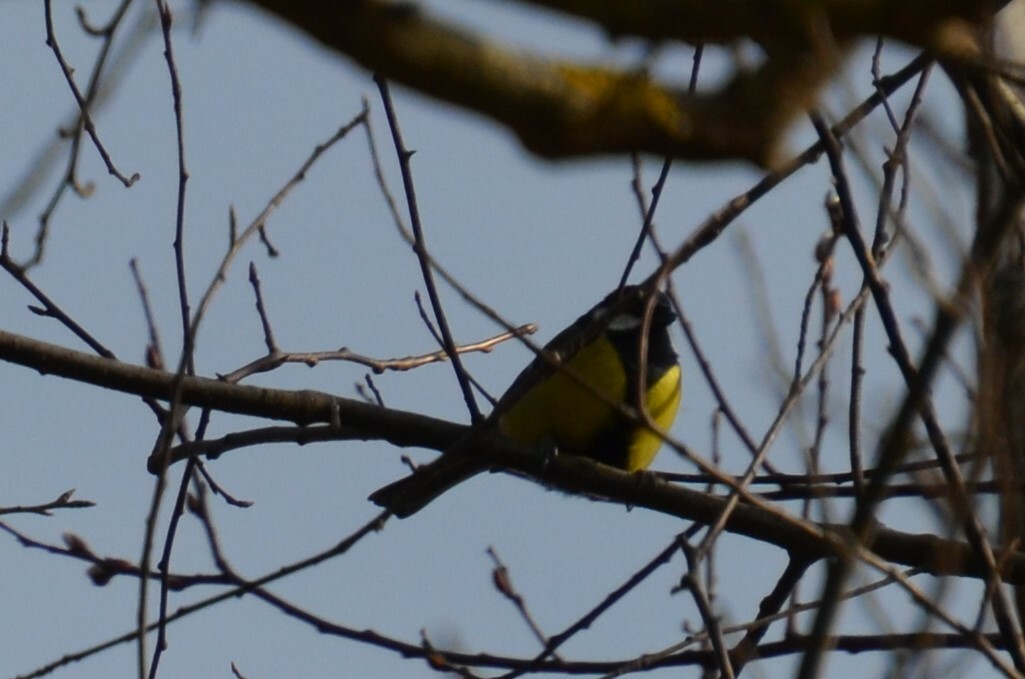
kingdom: Animalia
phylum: Chordata
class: Aves
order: Passeriformes
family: Paridae
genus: Parus
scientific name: Parus major
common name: Great tit
